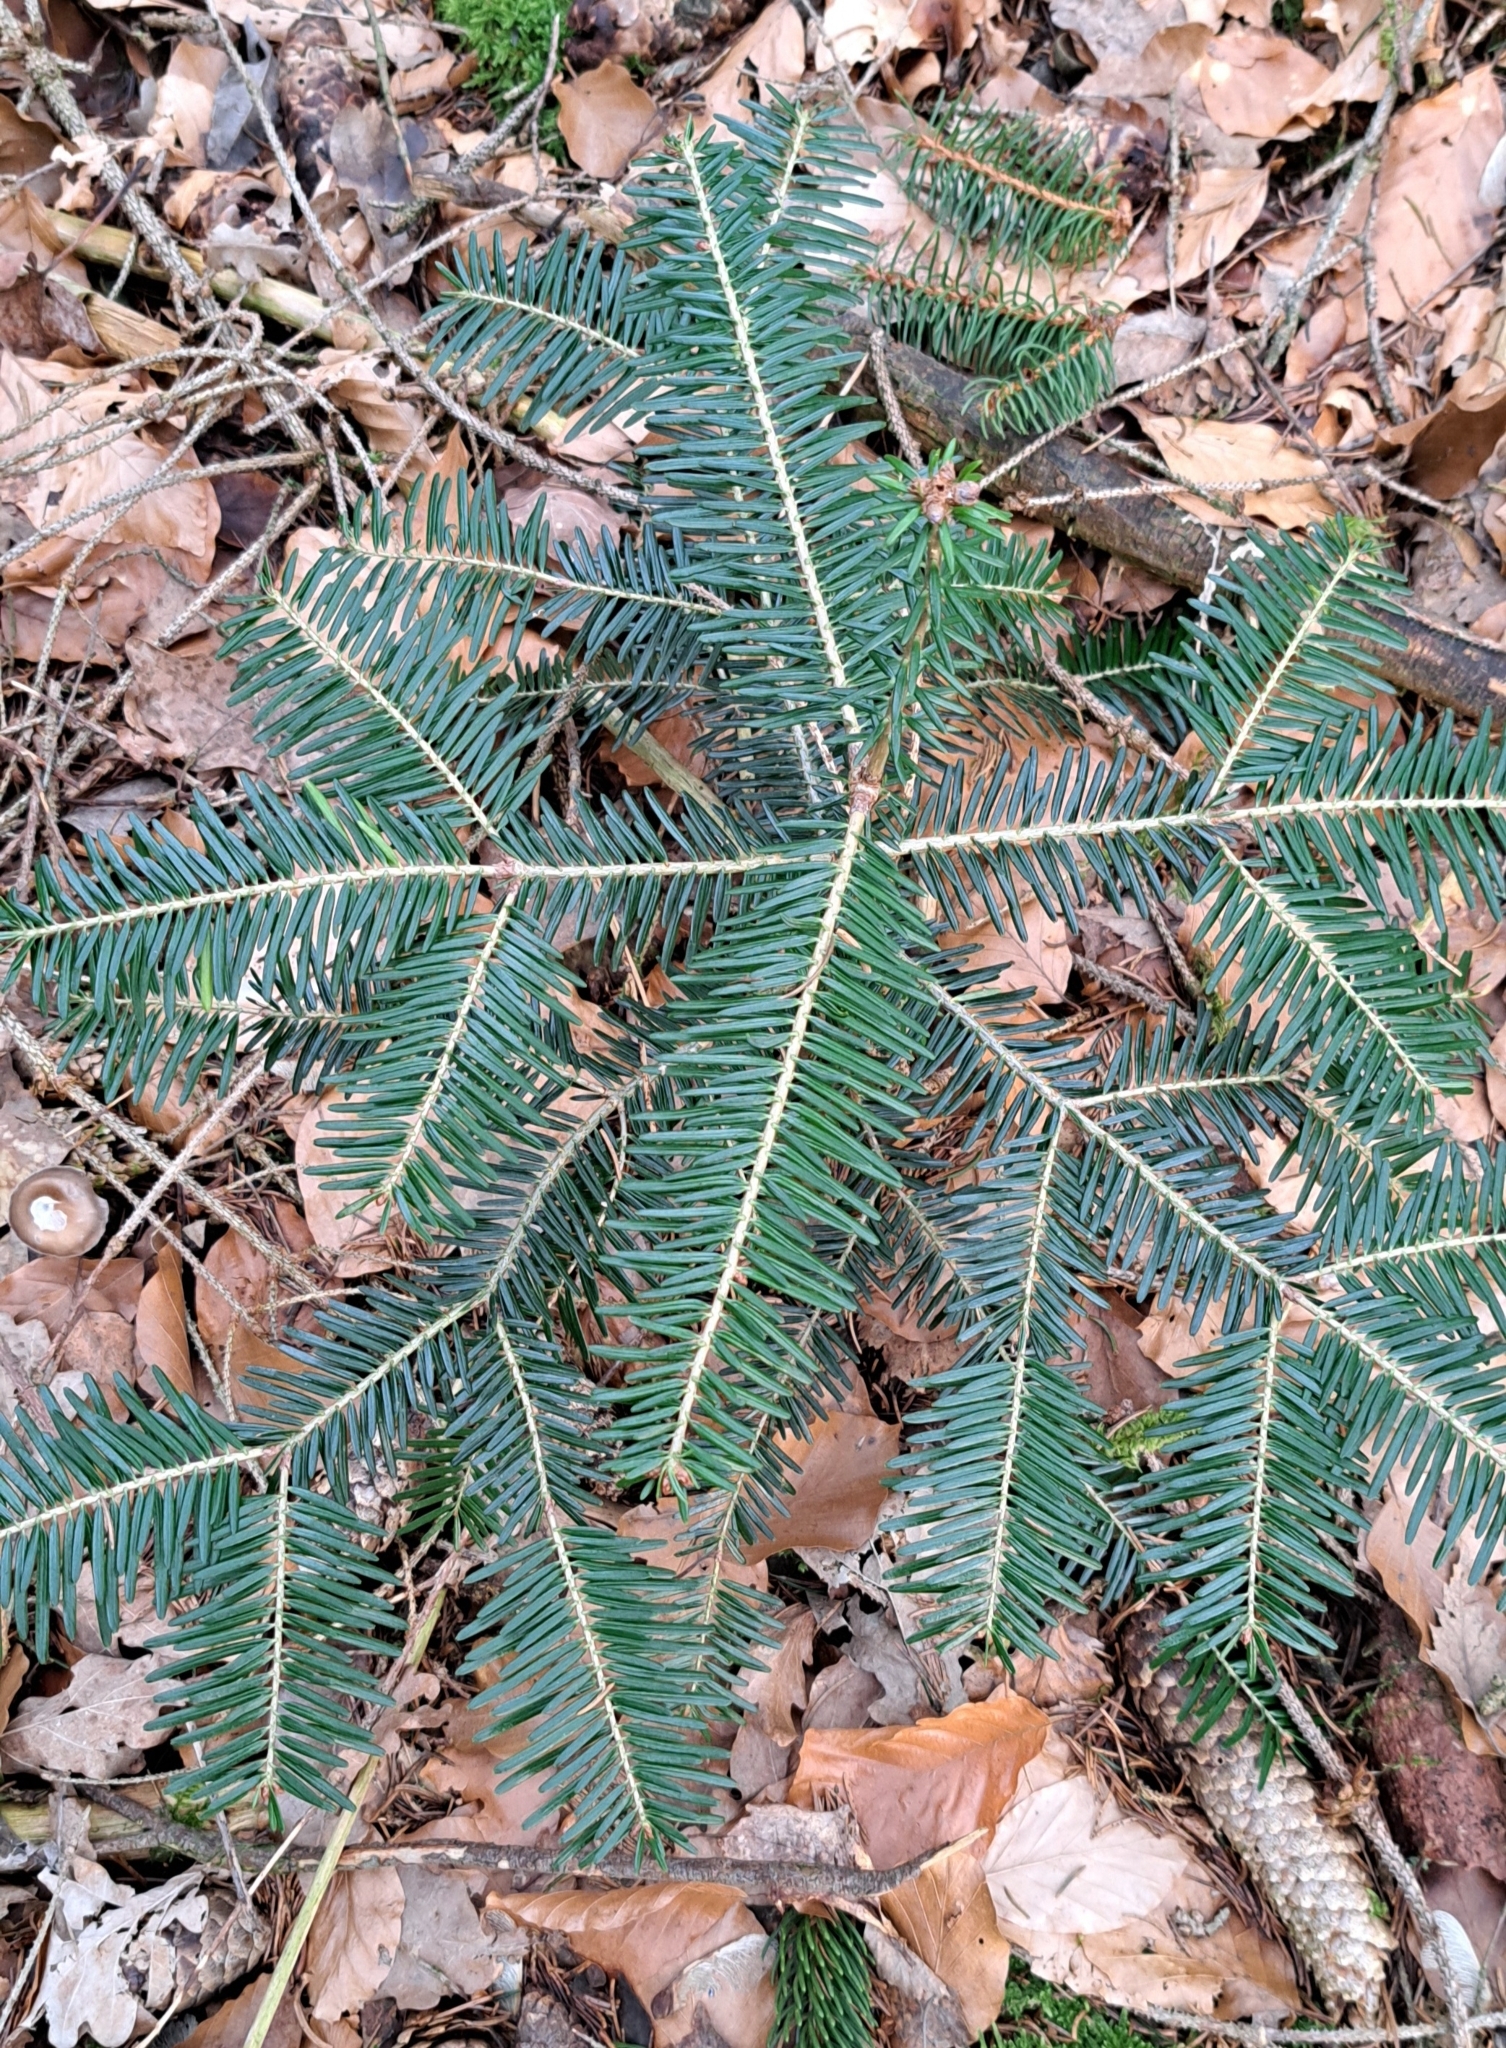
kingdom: Plantae
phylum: Tracheophyta
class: Pinopsida
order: Pinales
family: Pinaceae
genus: Abies
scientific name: Abies alba
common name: Silver fir
